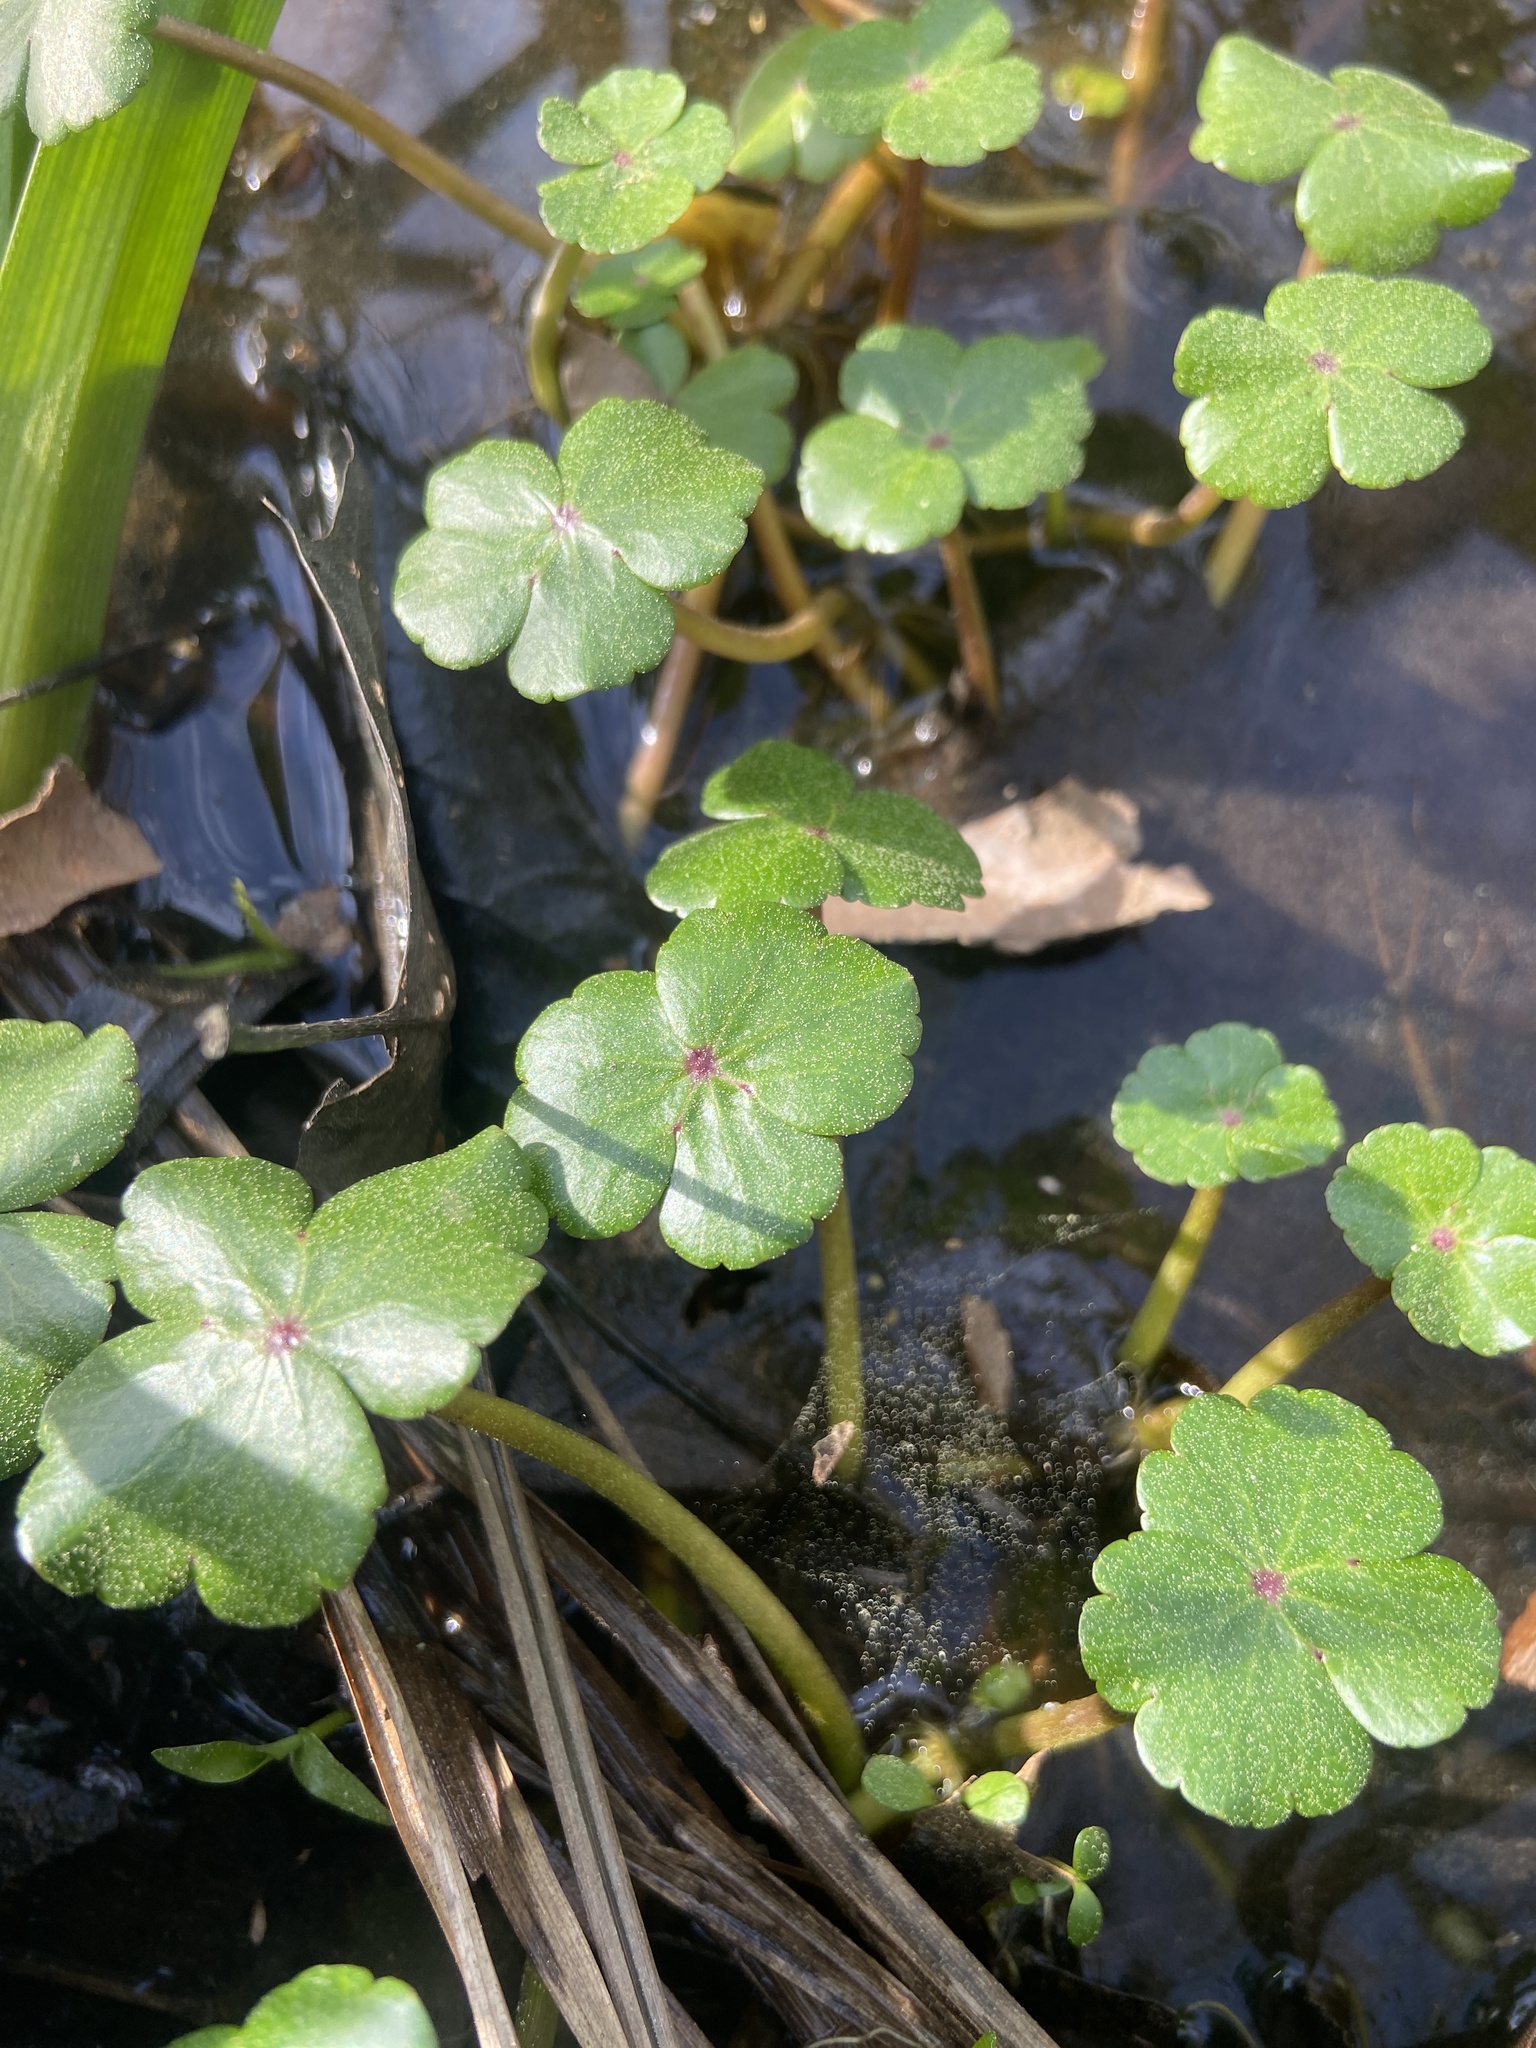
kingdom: Plantae
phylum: Tracheophyta
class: Magnoliopsida
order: Apiales
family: Araliaceae
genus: Hydrocotyle
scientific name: Hydrocotyle ranunculoides
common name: Floating pennywort
